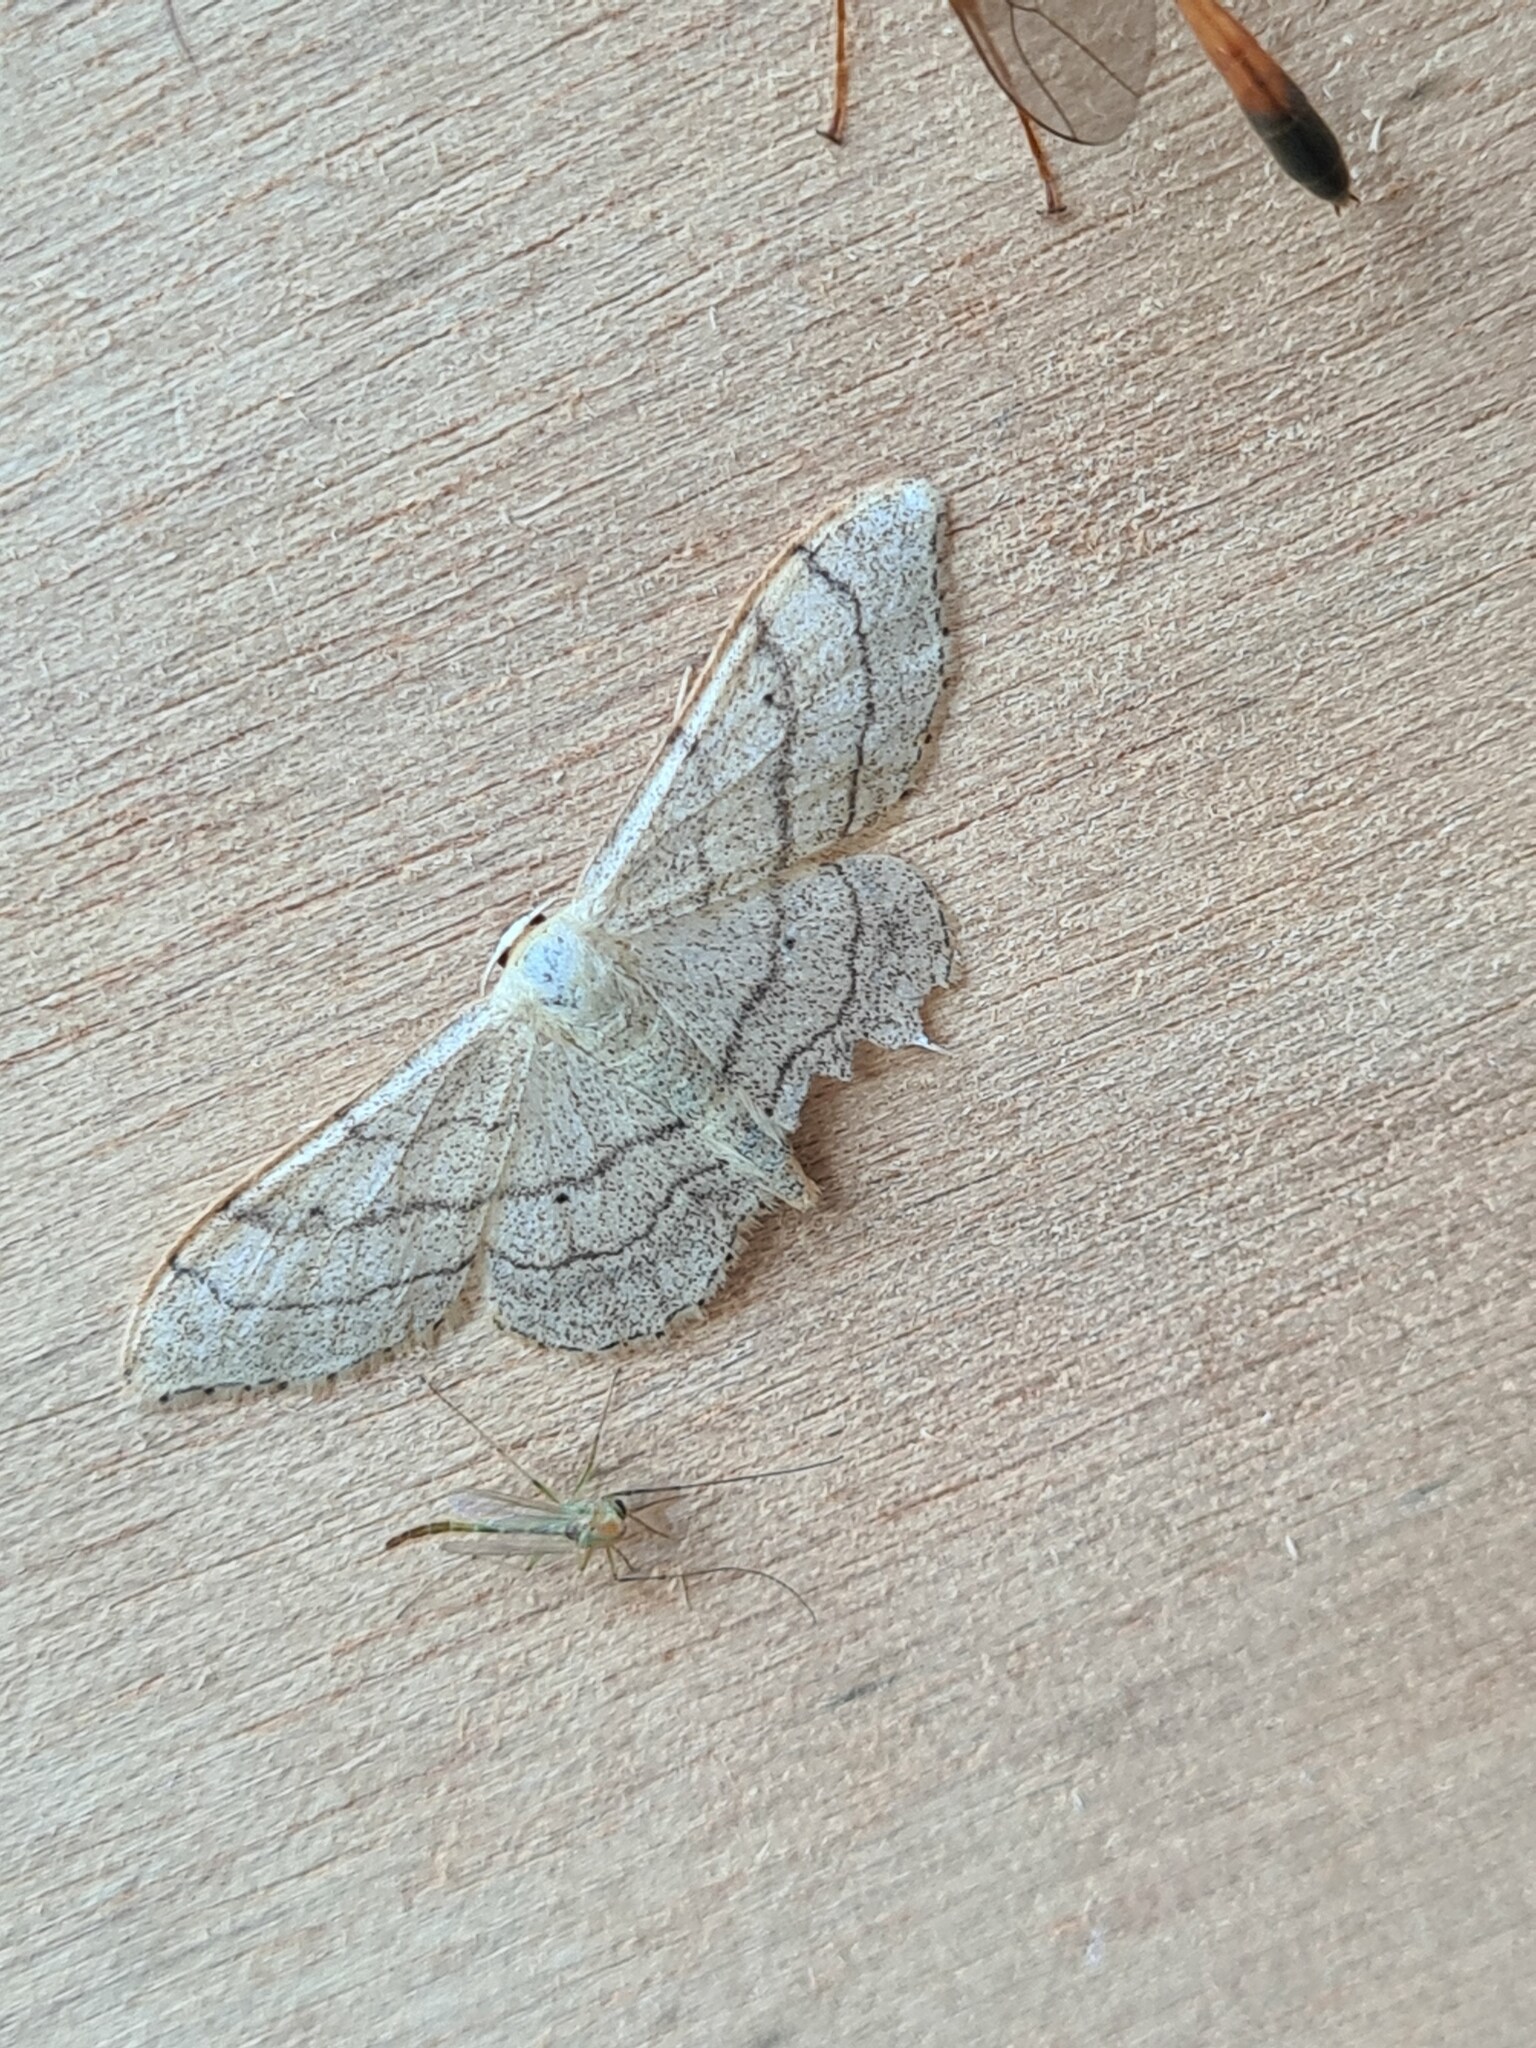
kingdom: Animalia
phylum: Arthropoda
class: Insecta
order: Lepidoptera
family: Geometridae
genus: Idaea
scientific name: Idaea aversata
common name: Riband wave
